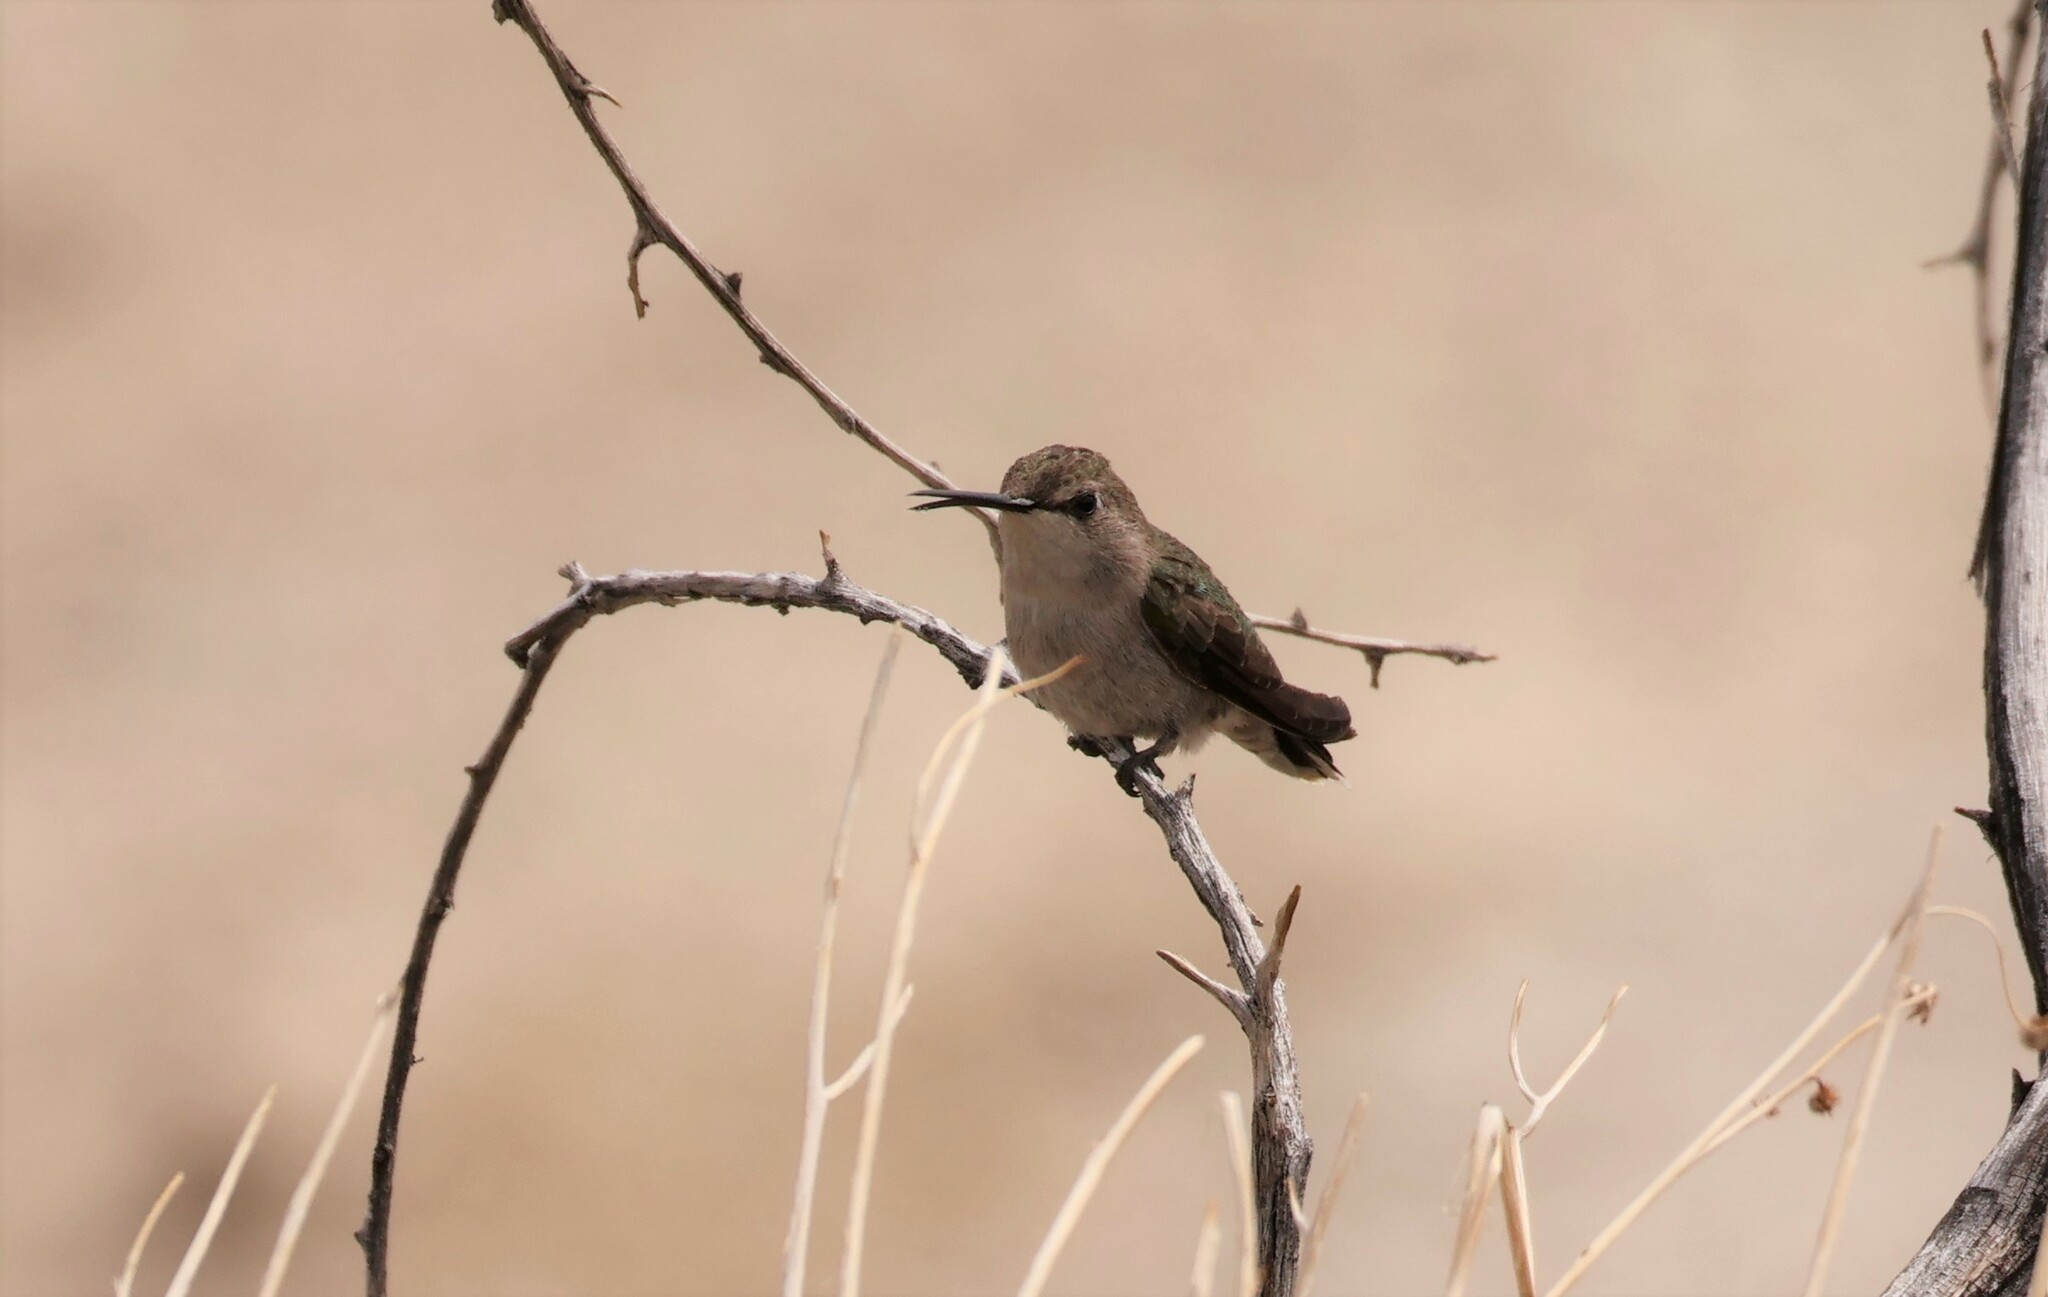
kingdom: Animalia
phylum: Chordata
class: Aves
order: Apodiformes
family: Trochilidae
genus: Calypte
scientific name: Calypte costae
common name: Costa's hummingbird
